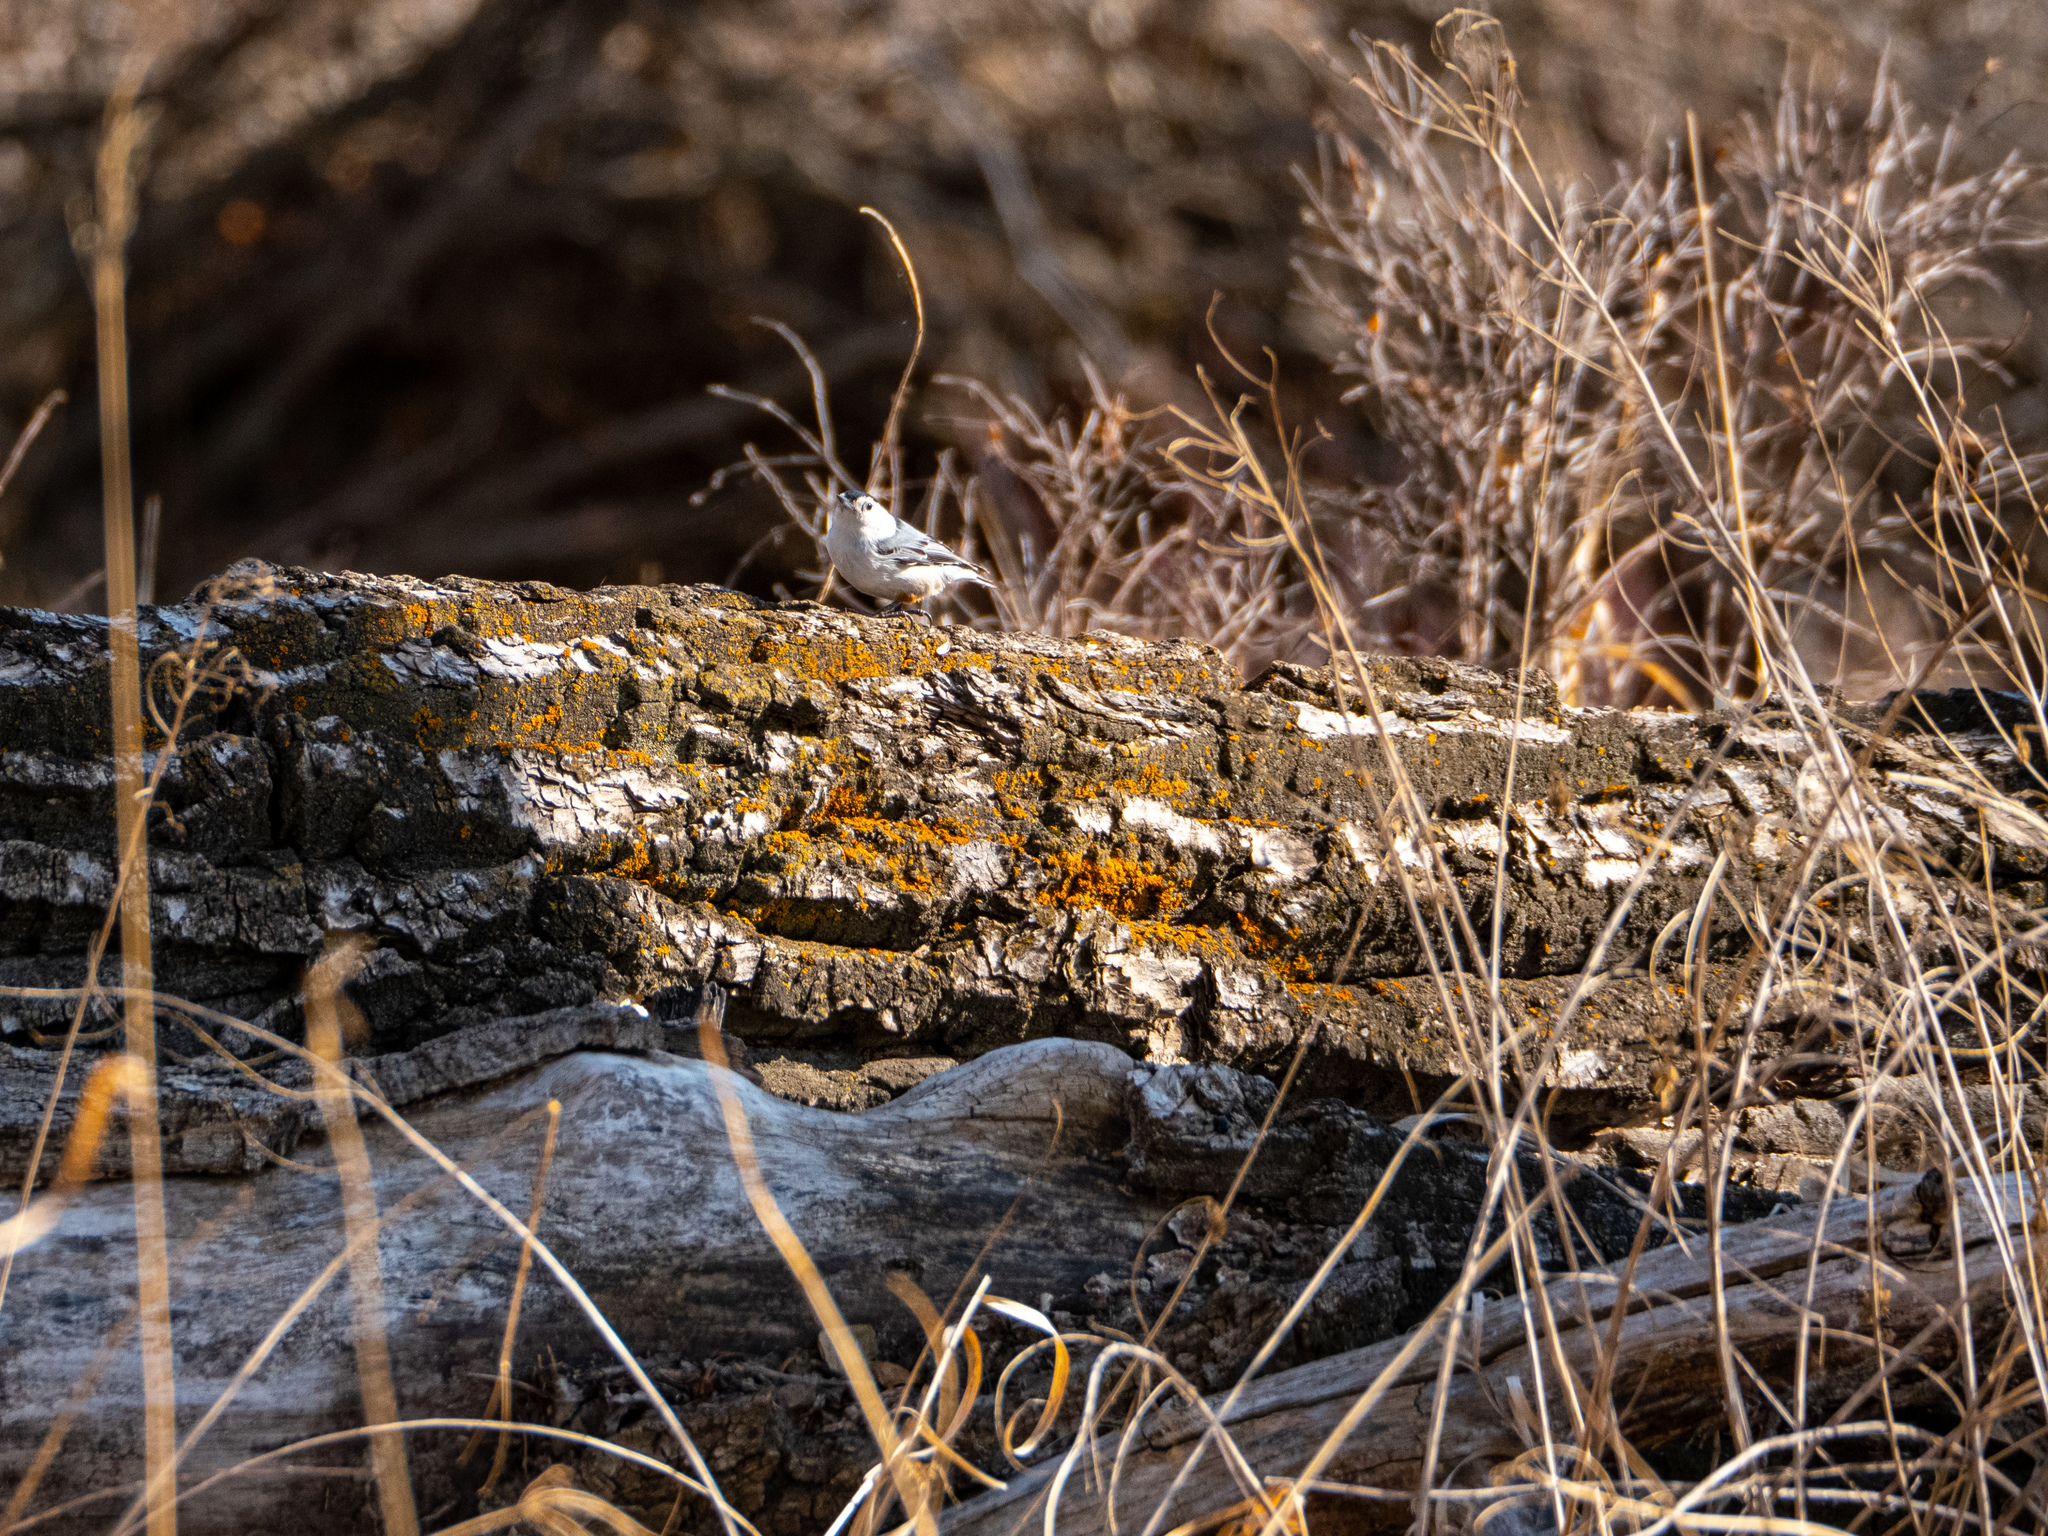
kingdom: Animalia
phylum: Chordata
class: Aves
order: Passeriformes
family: Sittidae
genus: Sitta
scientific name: Sitta carolinensis
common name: White-breasted nuthatch
